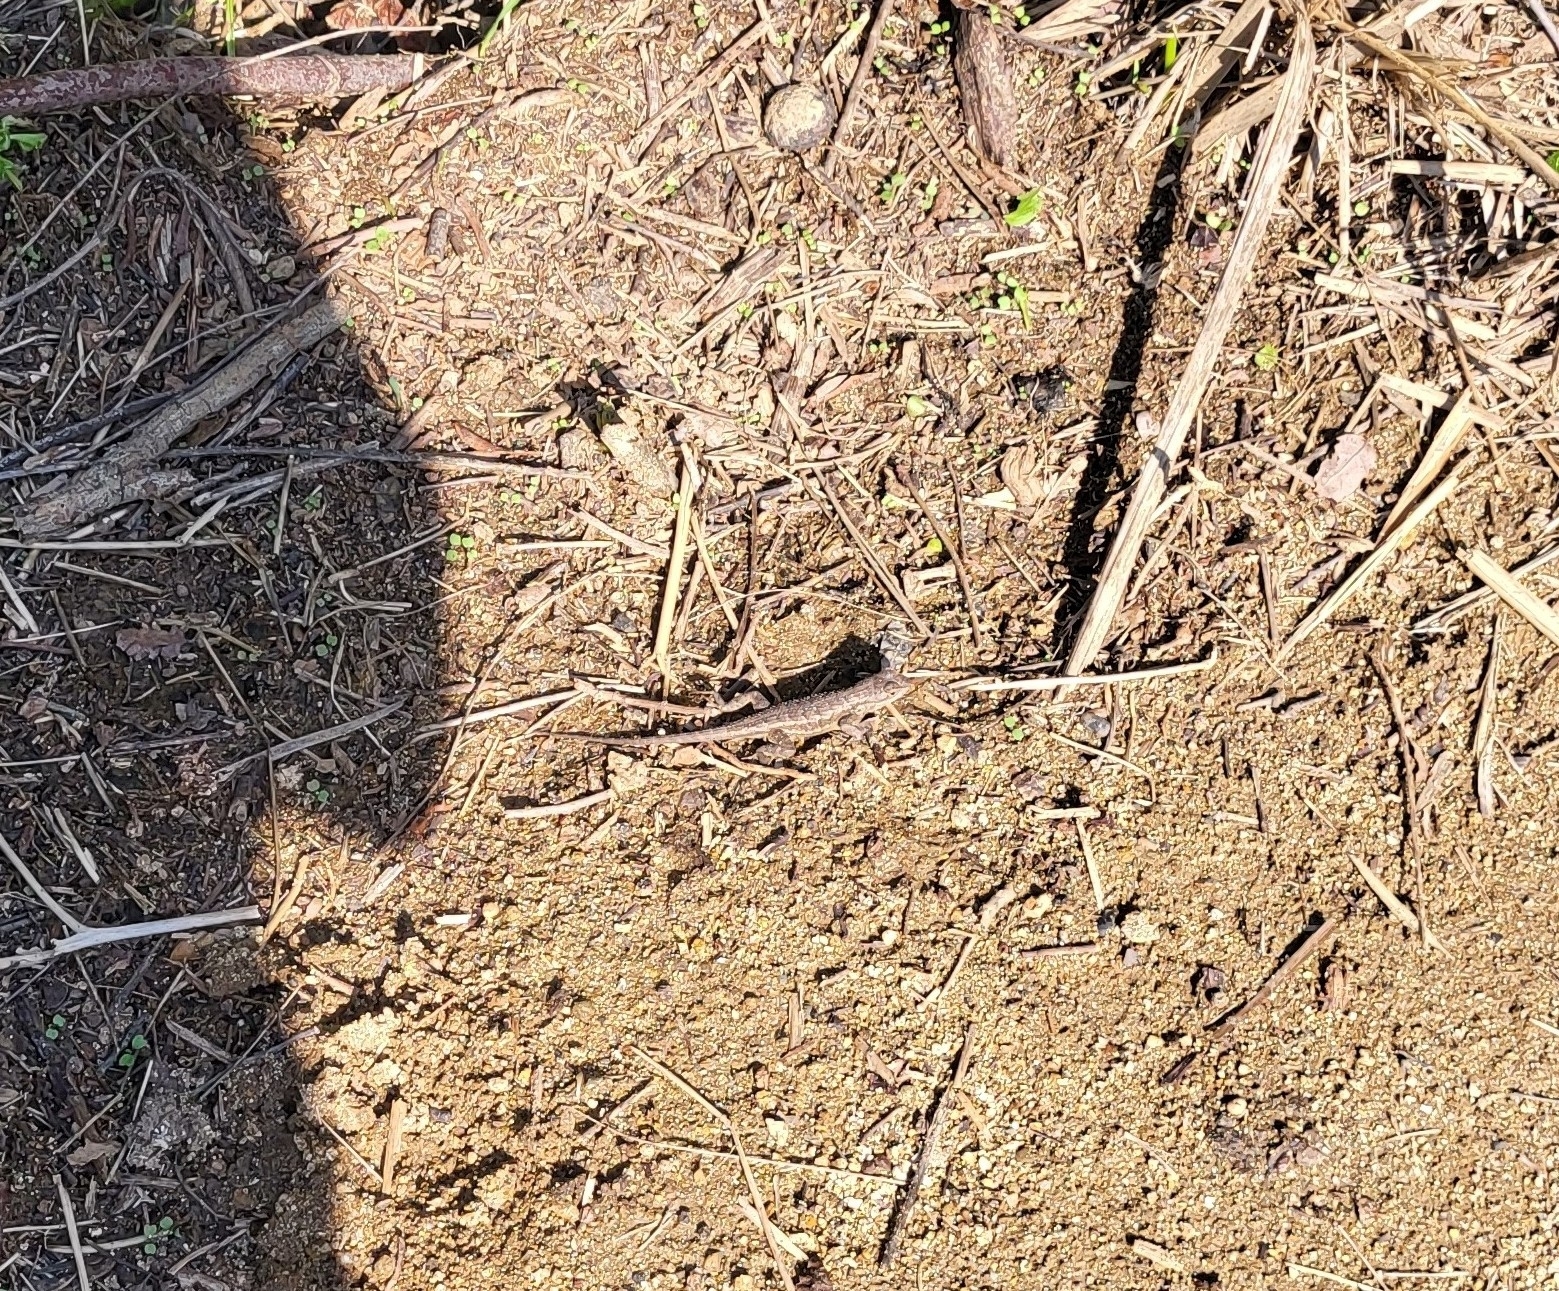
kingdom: Animalia
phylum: Chordata
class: Squamata
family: Phrynosomatidae
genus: Sceloporus
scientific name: Sceloporus occidentalis
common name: Western fence lizard
